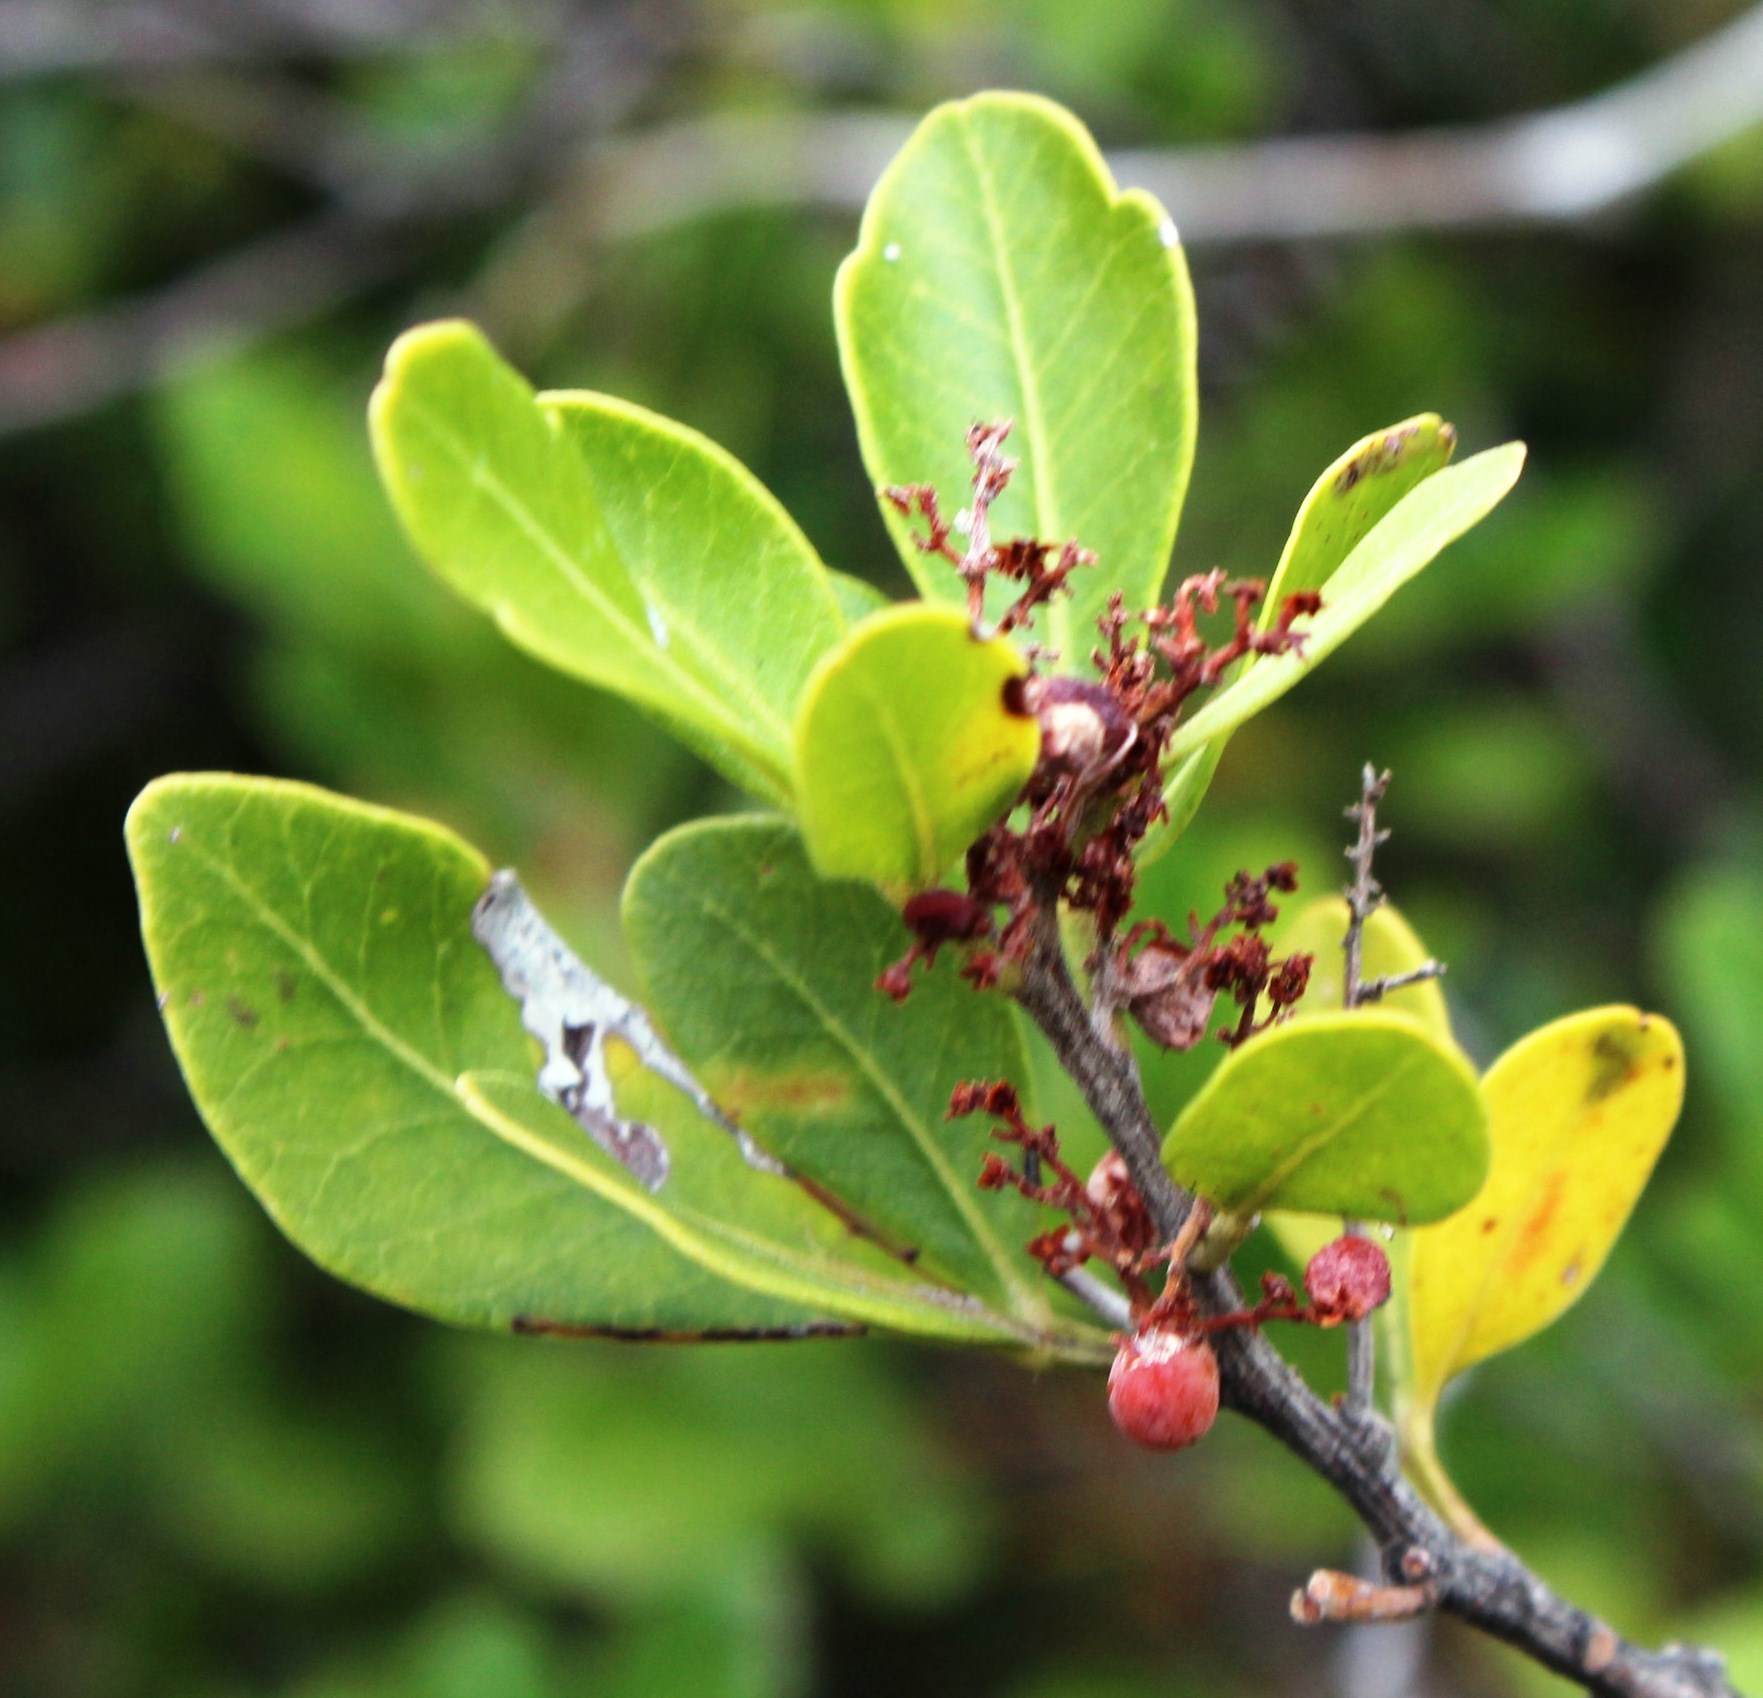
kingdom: Plantae
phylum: Tracheophyta
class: Magnoliopsida
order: Sapindales
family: Anacardiaceae
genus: Searsia
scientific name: Searsia lucida
